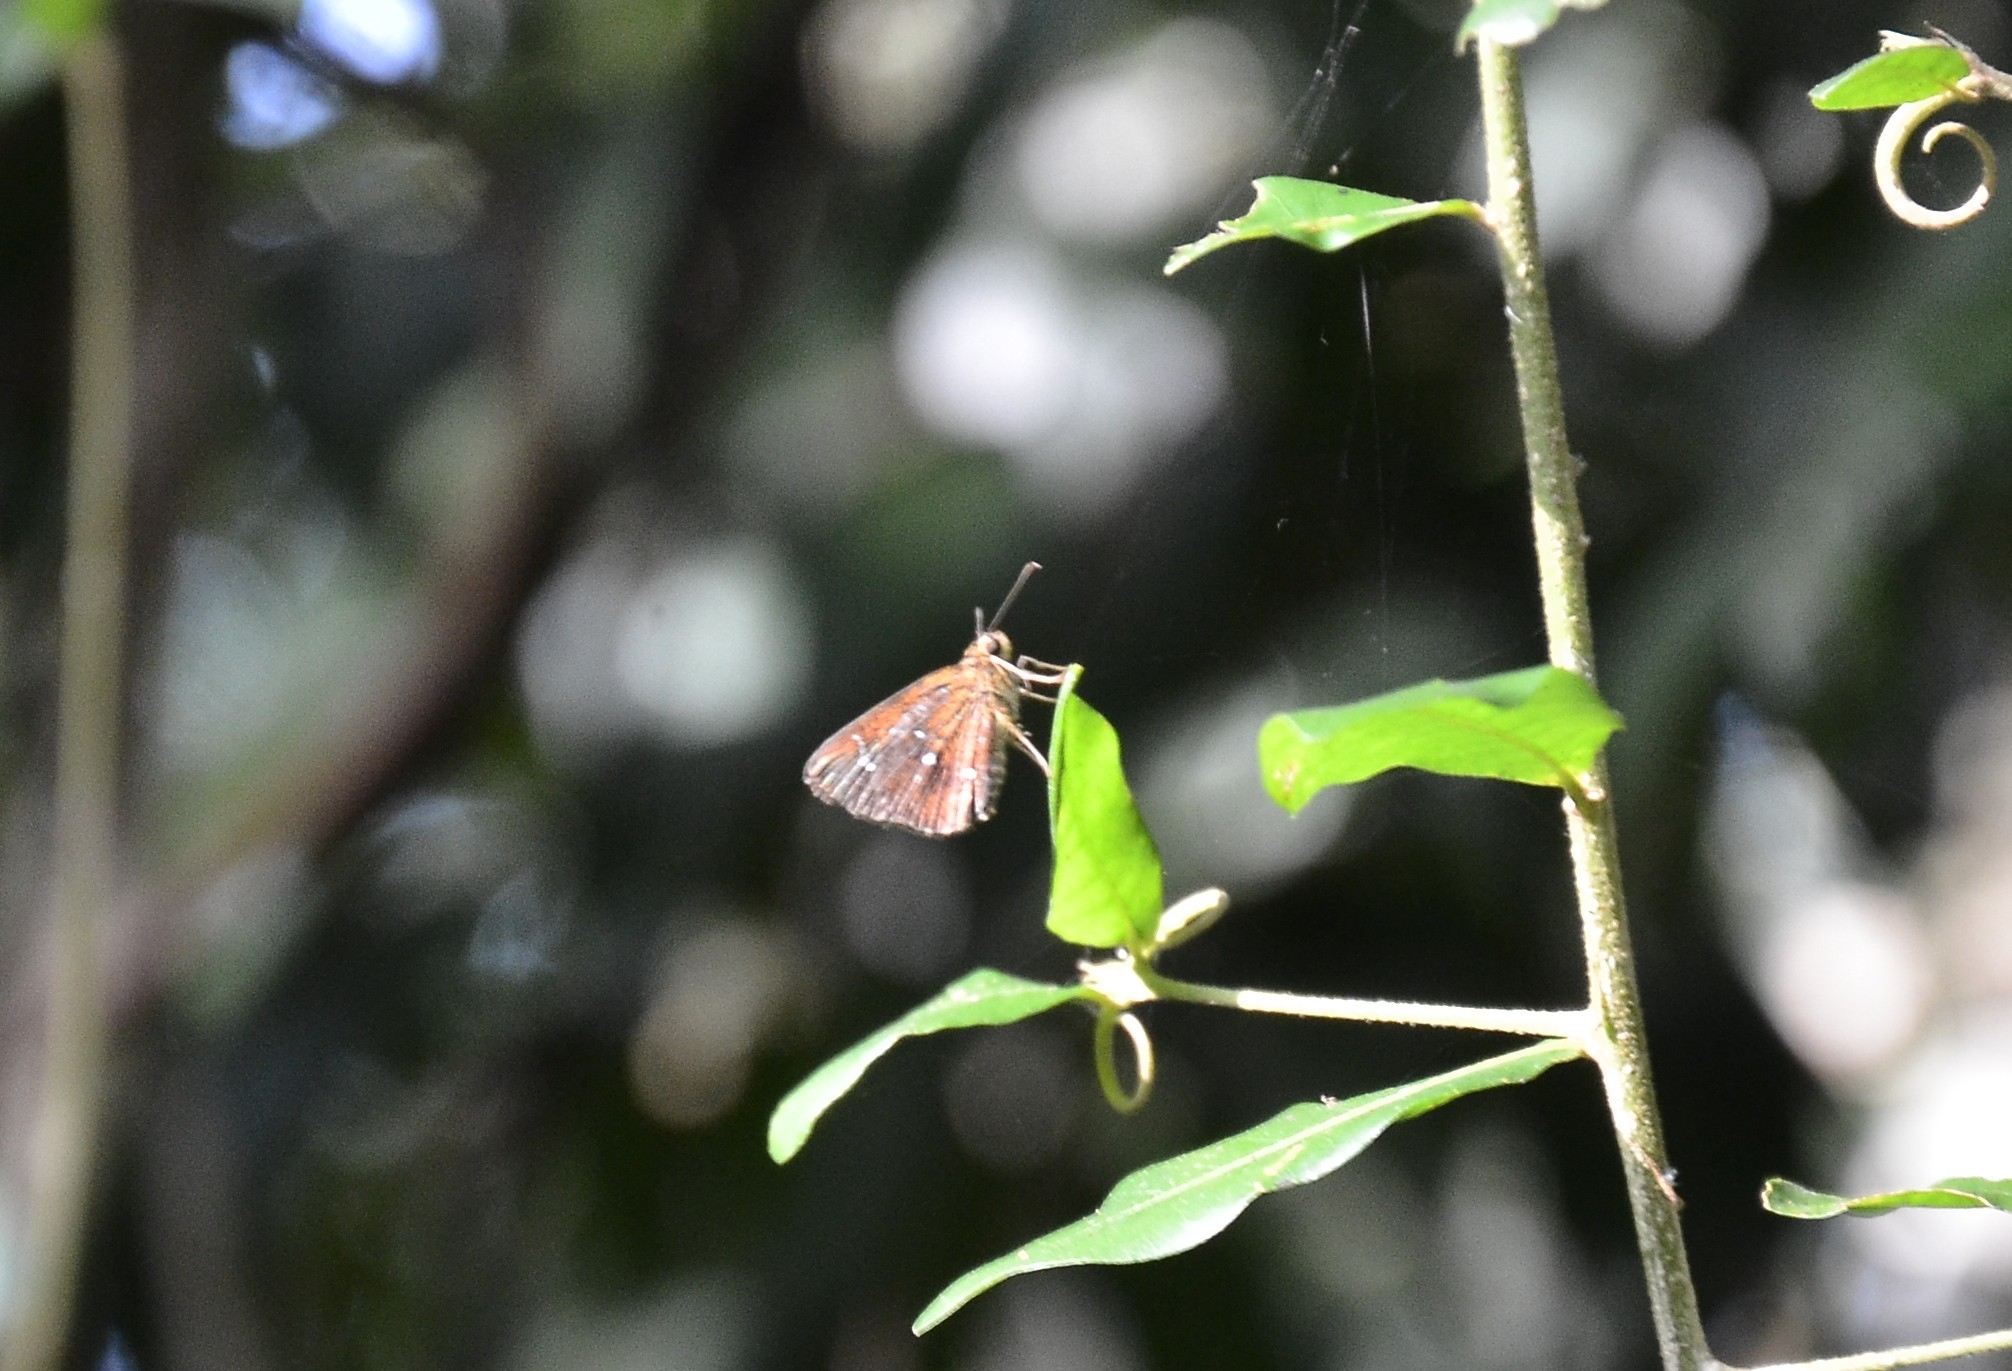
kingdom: Animalia
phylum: Arthropoda
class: Insecta
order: Lepidoptera
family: Hesperiidae
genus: Iambrix
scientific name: Iambrix salsala
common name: Chestnut bob
